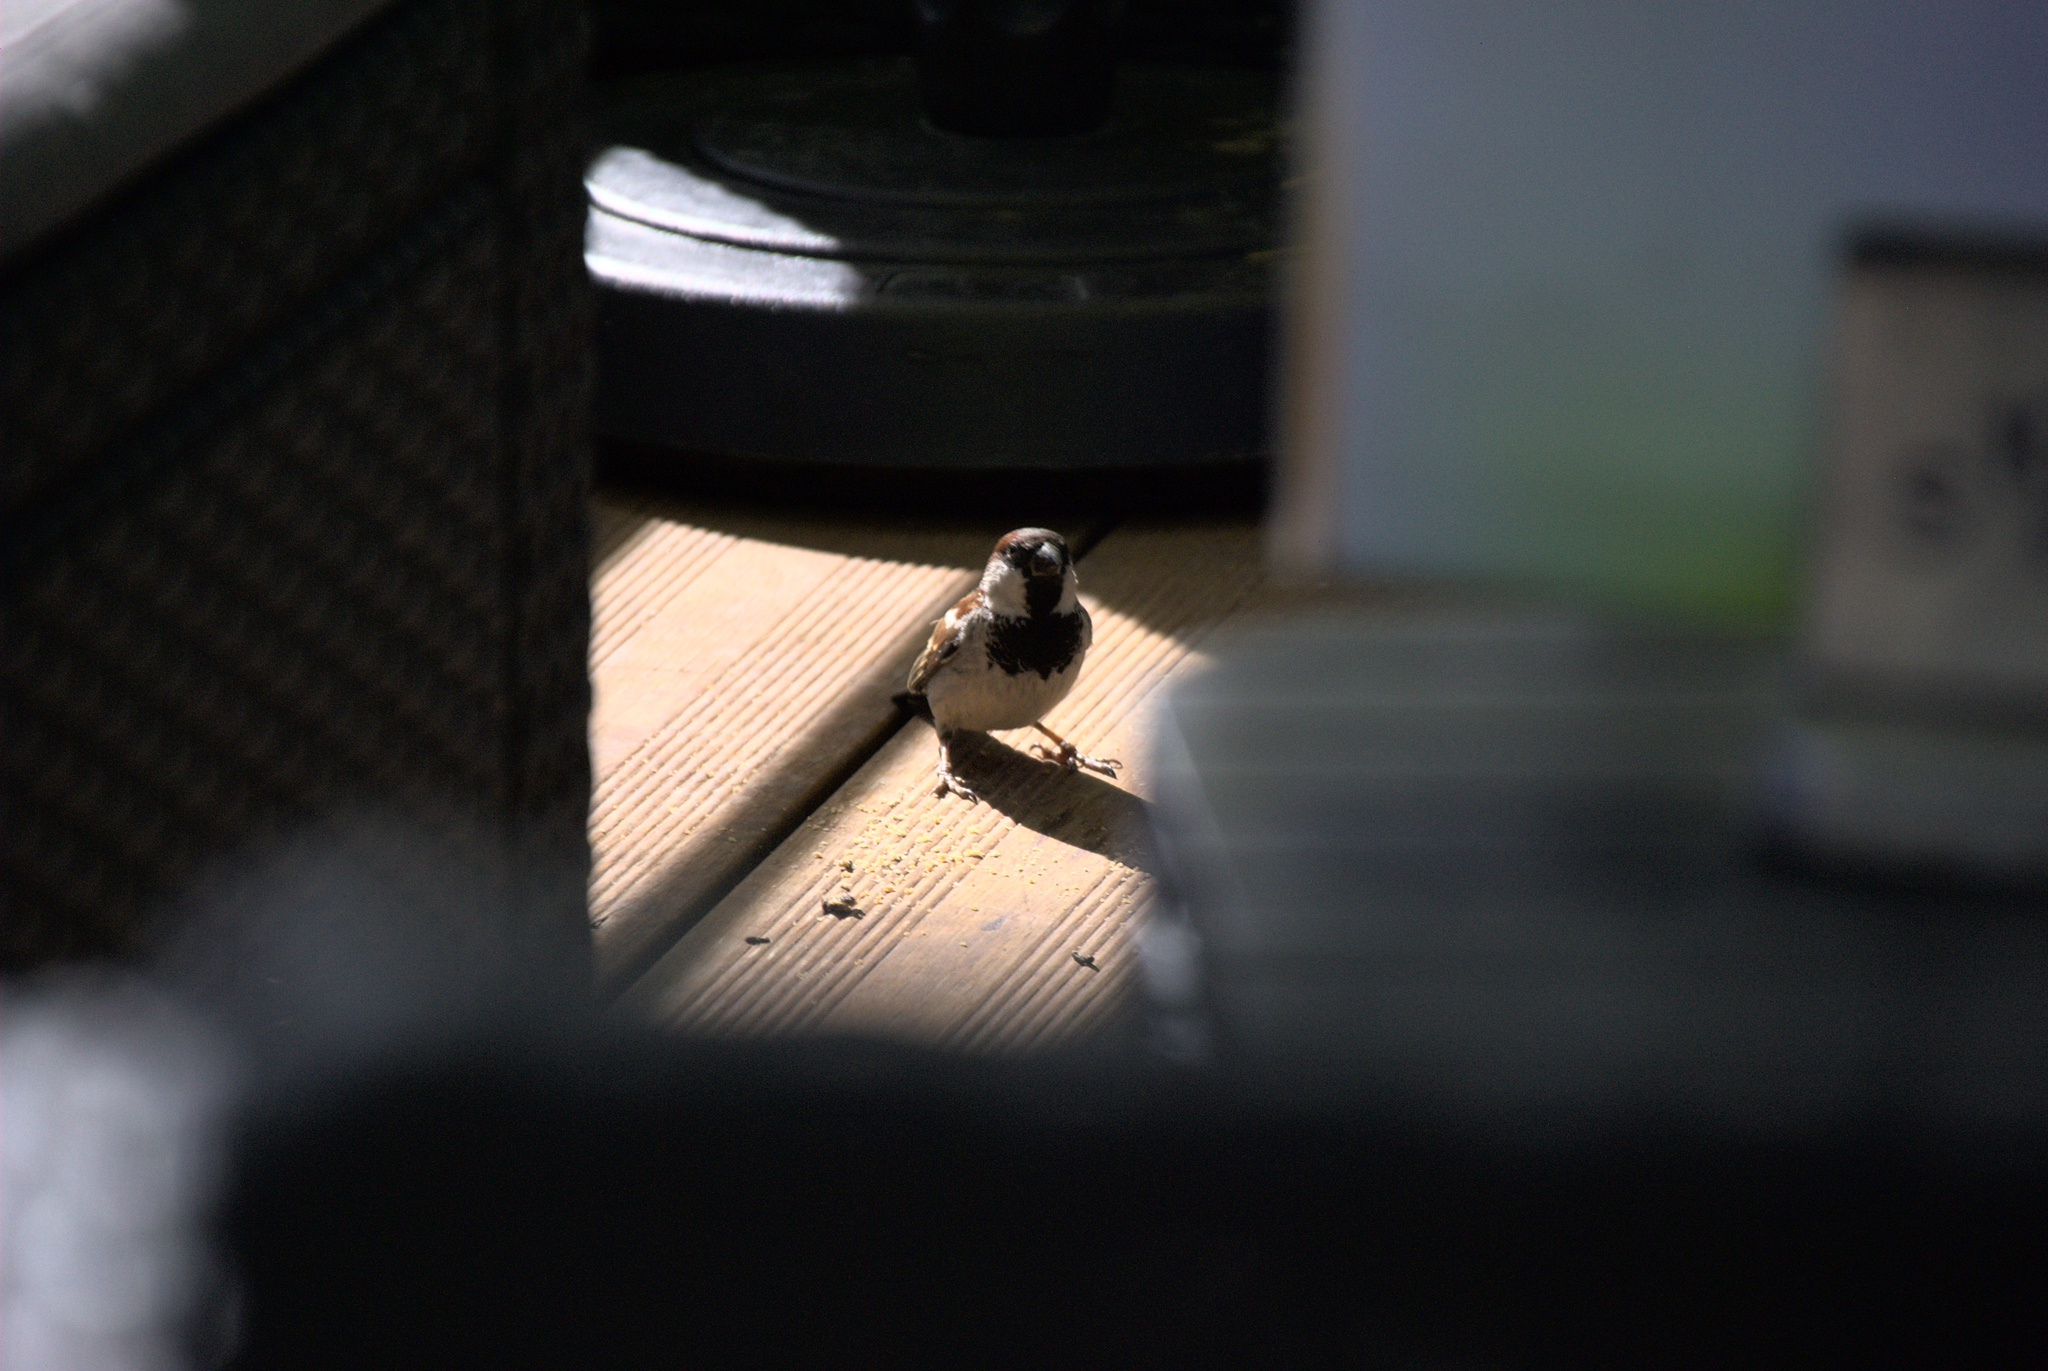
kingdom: Animalia
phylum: Chordata
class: Aves
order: Passeriformes
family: Passeridae
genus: Passer
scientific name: Passer domesticus
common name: House sparrow
